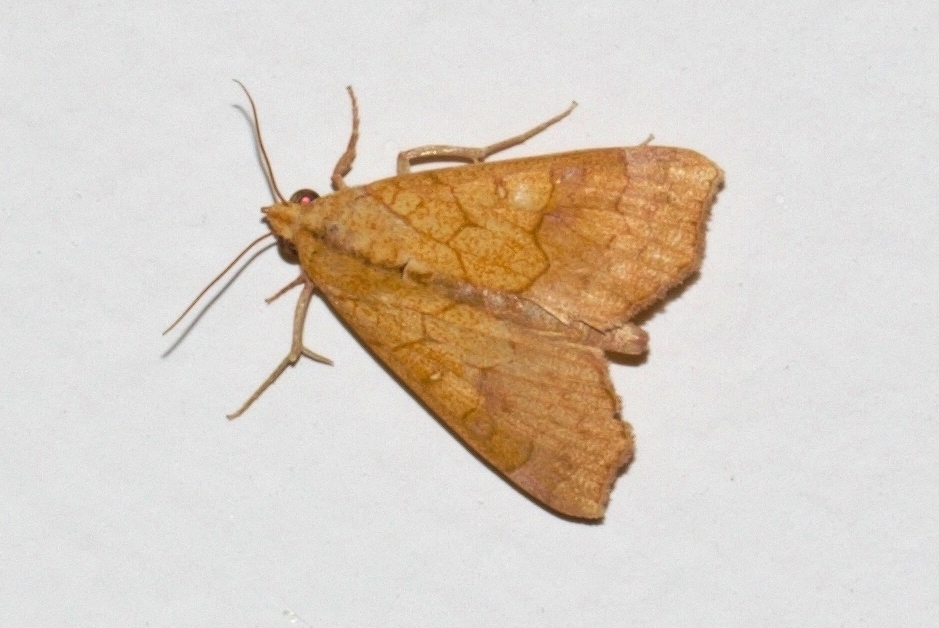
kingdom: Animalia
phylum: Arthropoda
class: Insecta
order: Lepidoptera
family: Erebidae
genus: Anomis
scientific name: Anomis flava
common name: Moth
